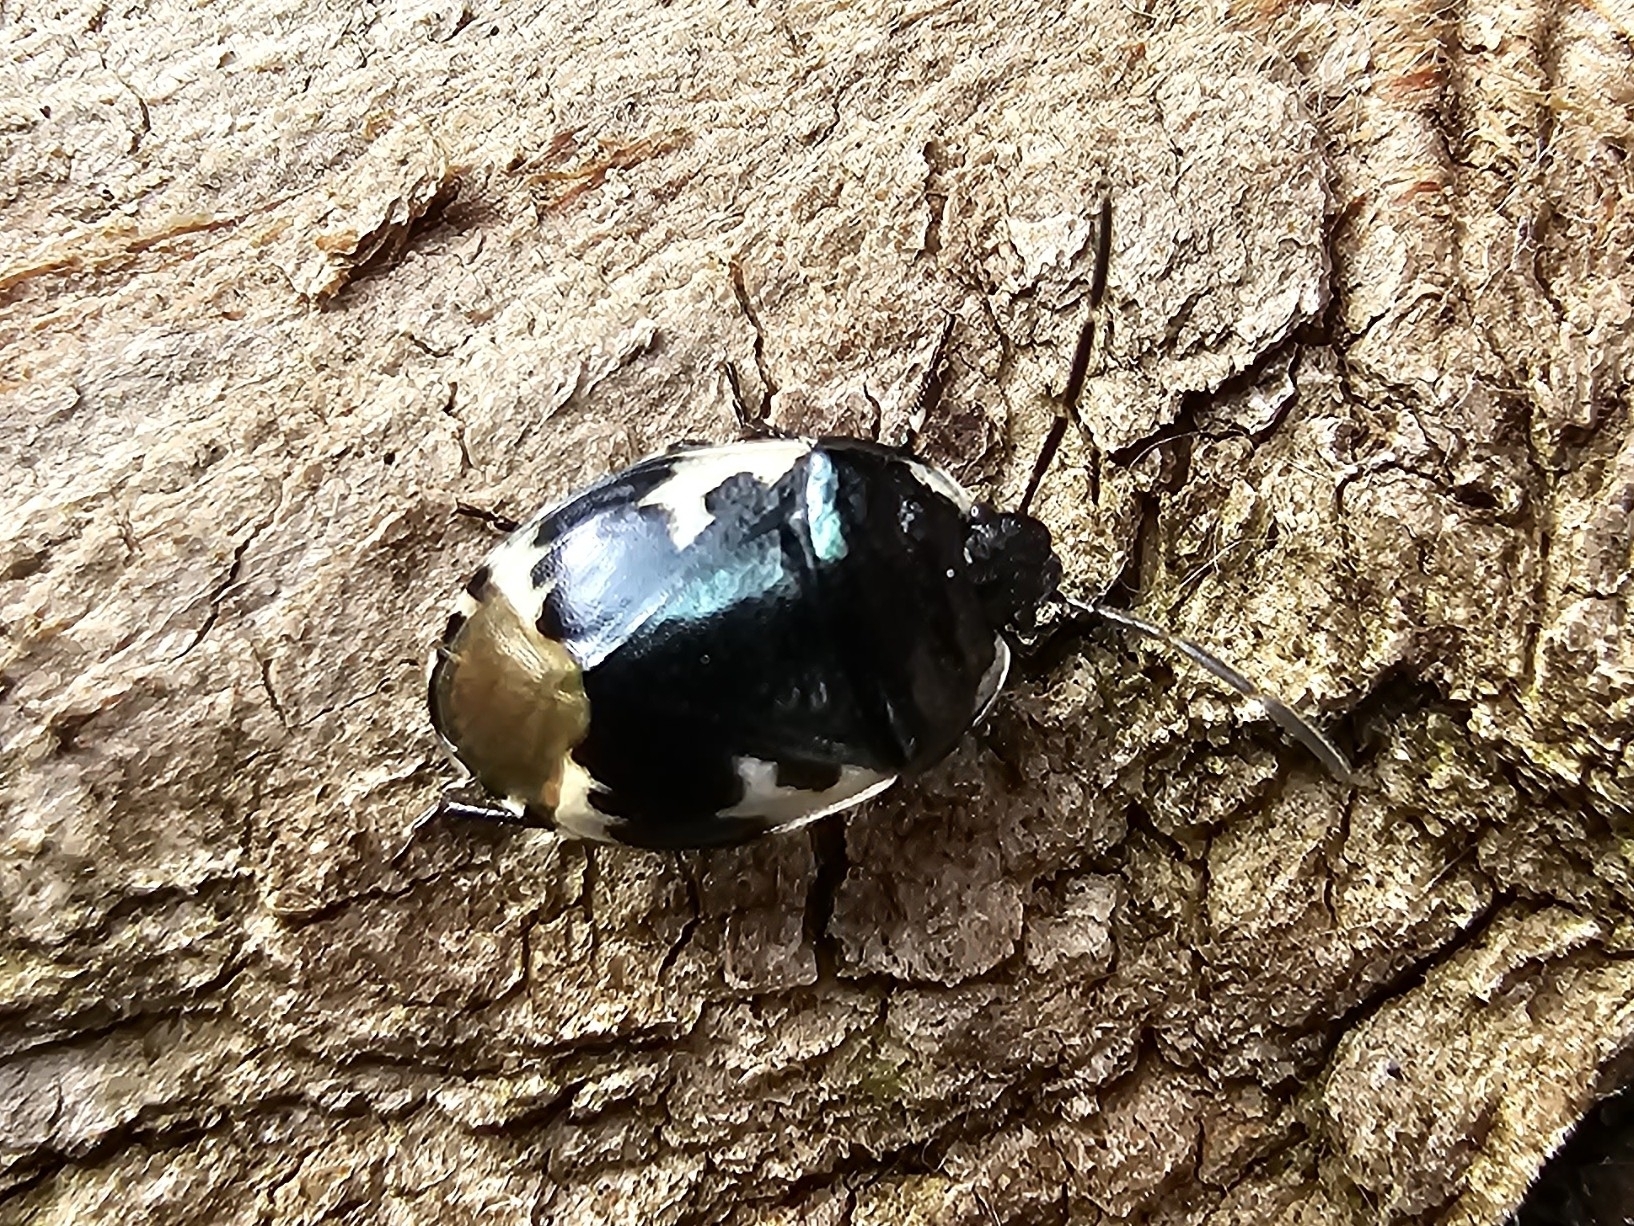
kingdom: Animalia
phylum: Arthropoda
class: Insecta
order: Hemiptera
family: Cydnidae
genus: Tritomegas
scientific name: Tritomegas bicolor
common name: Pied shieldbug
